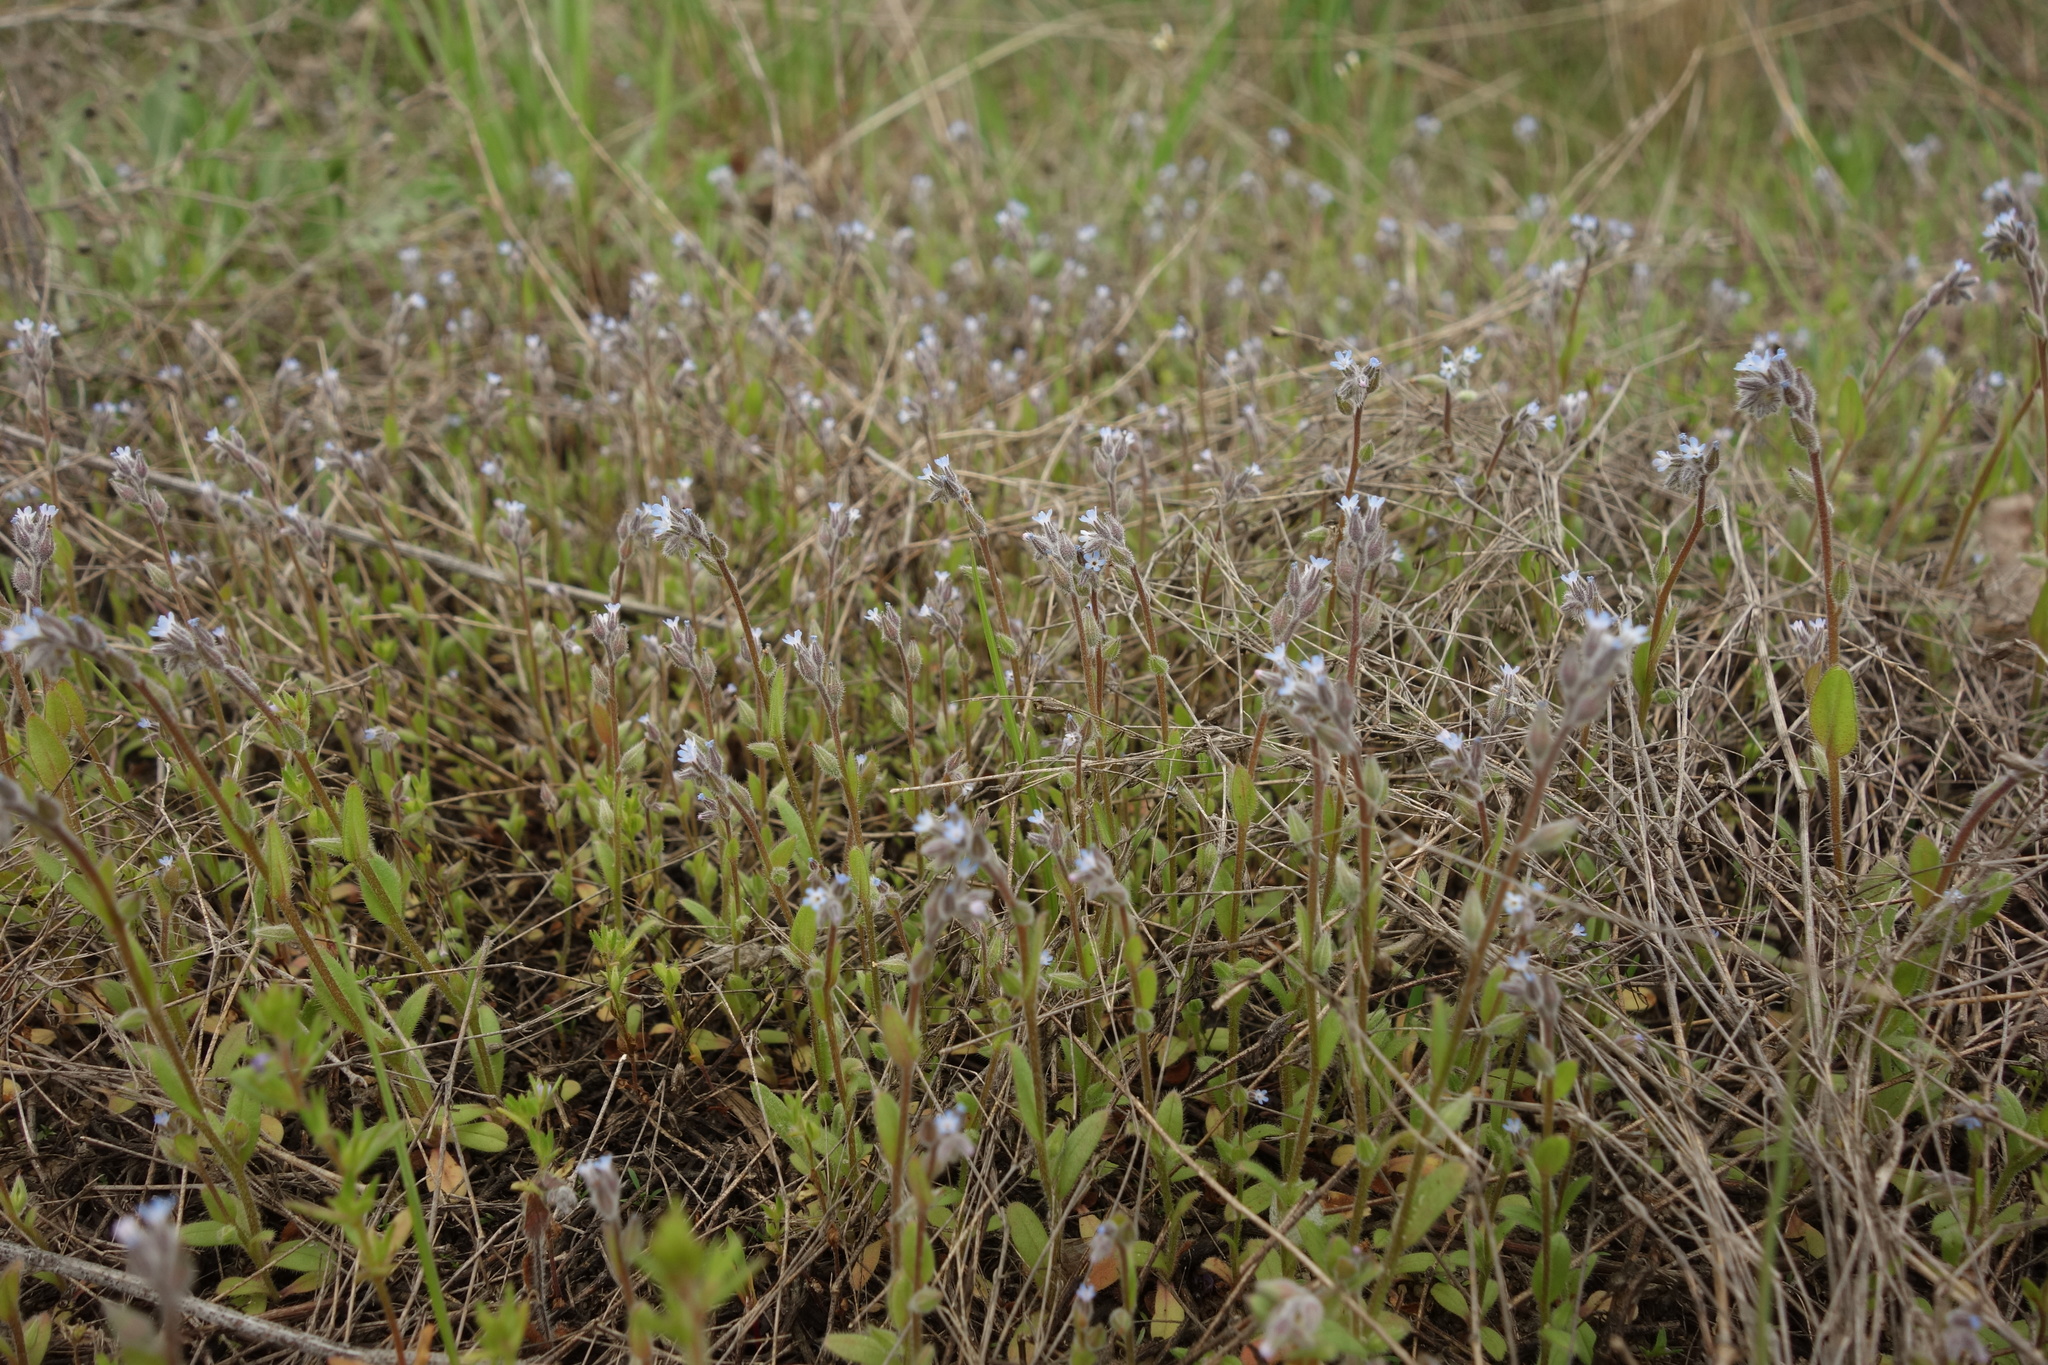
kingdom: Plantae
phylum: Tracheophyta
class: Magnoliopsida
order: Boraginales
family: Boraginaceae
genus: Myosotis
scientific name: Myosotis stricta
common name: Strict forget-me-not
